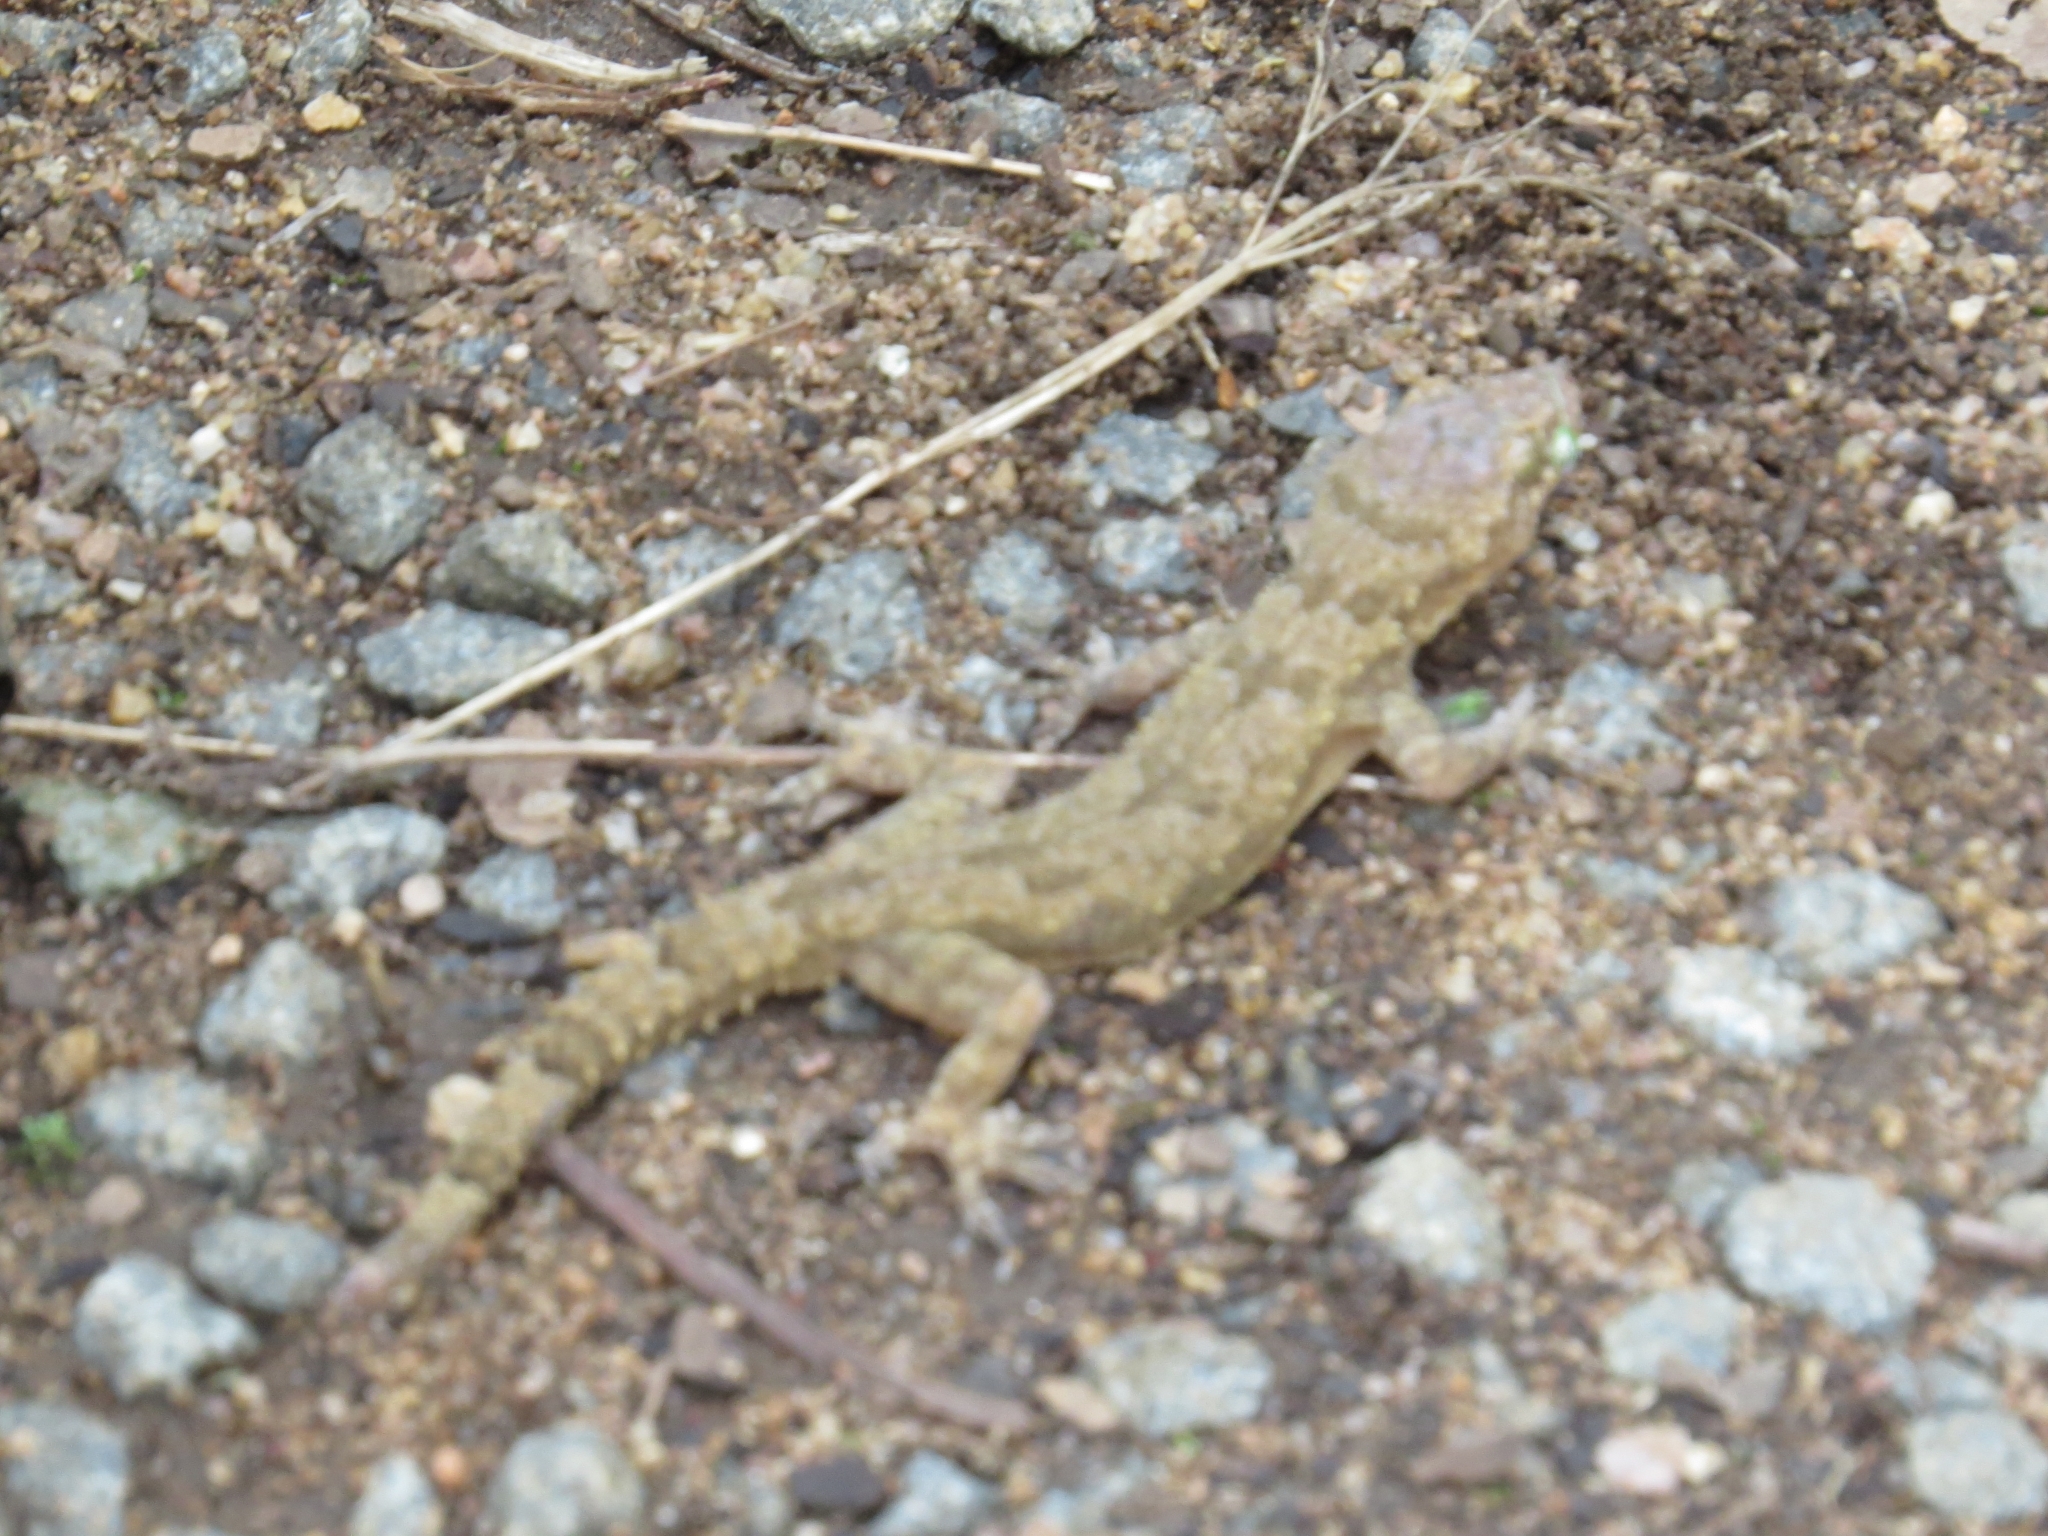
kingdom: Animalia
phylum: Chordata
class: Squamata
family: Gekkonidae
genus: Hemidactylus
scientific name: Hemidactylus mabouia
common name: House gecko
